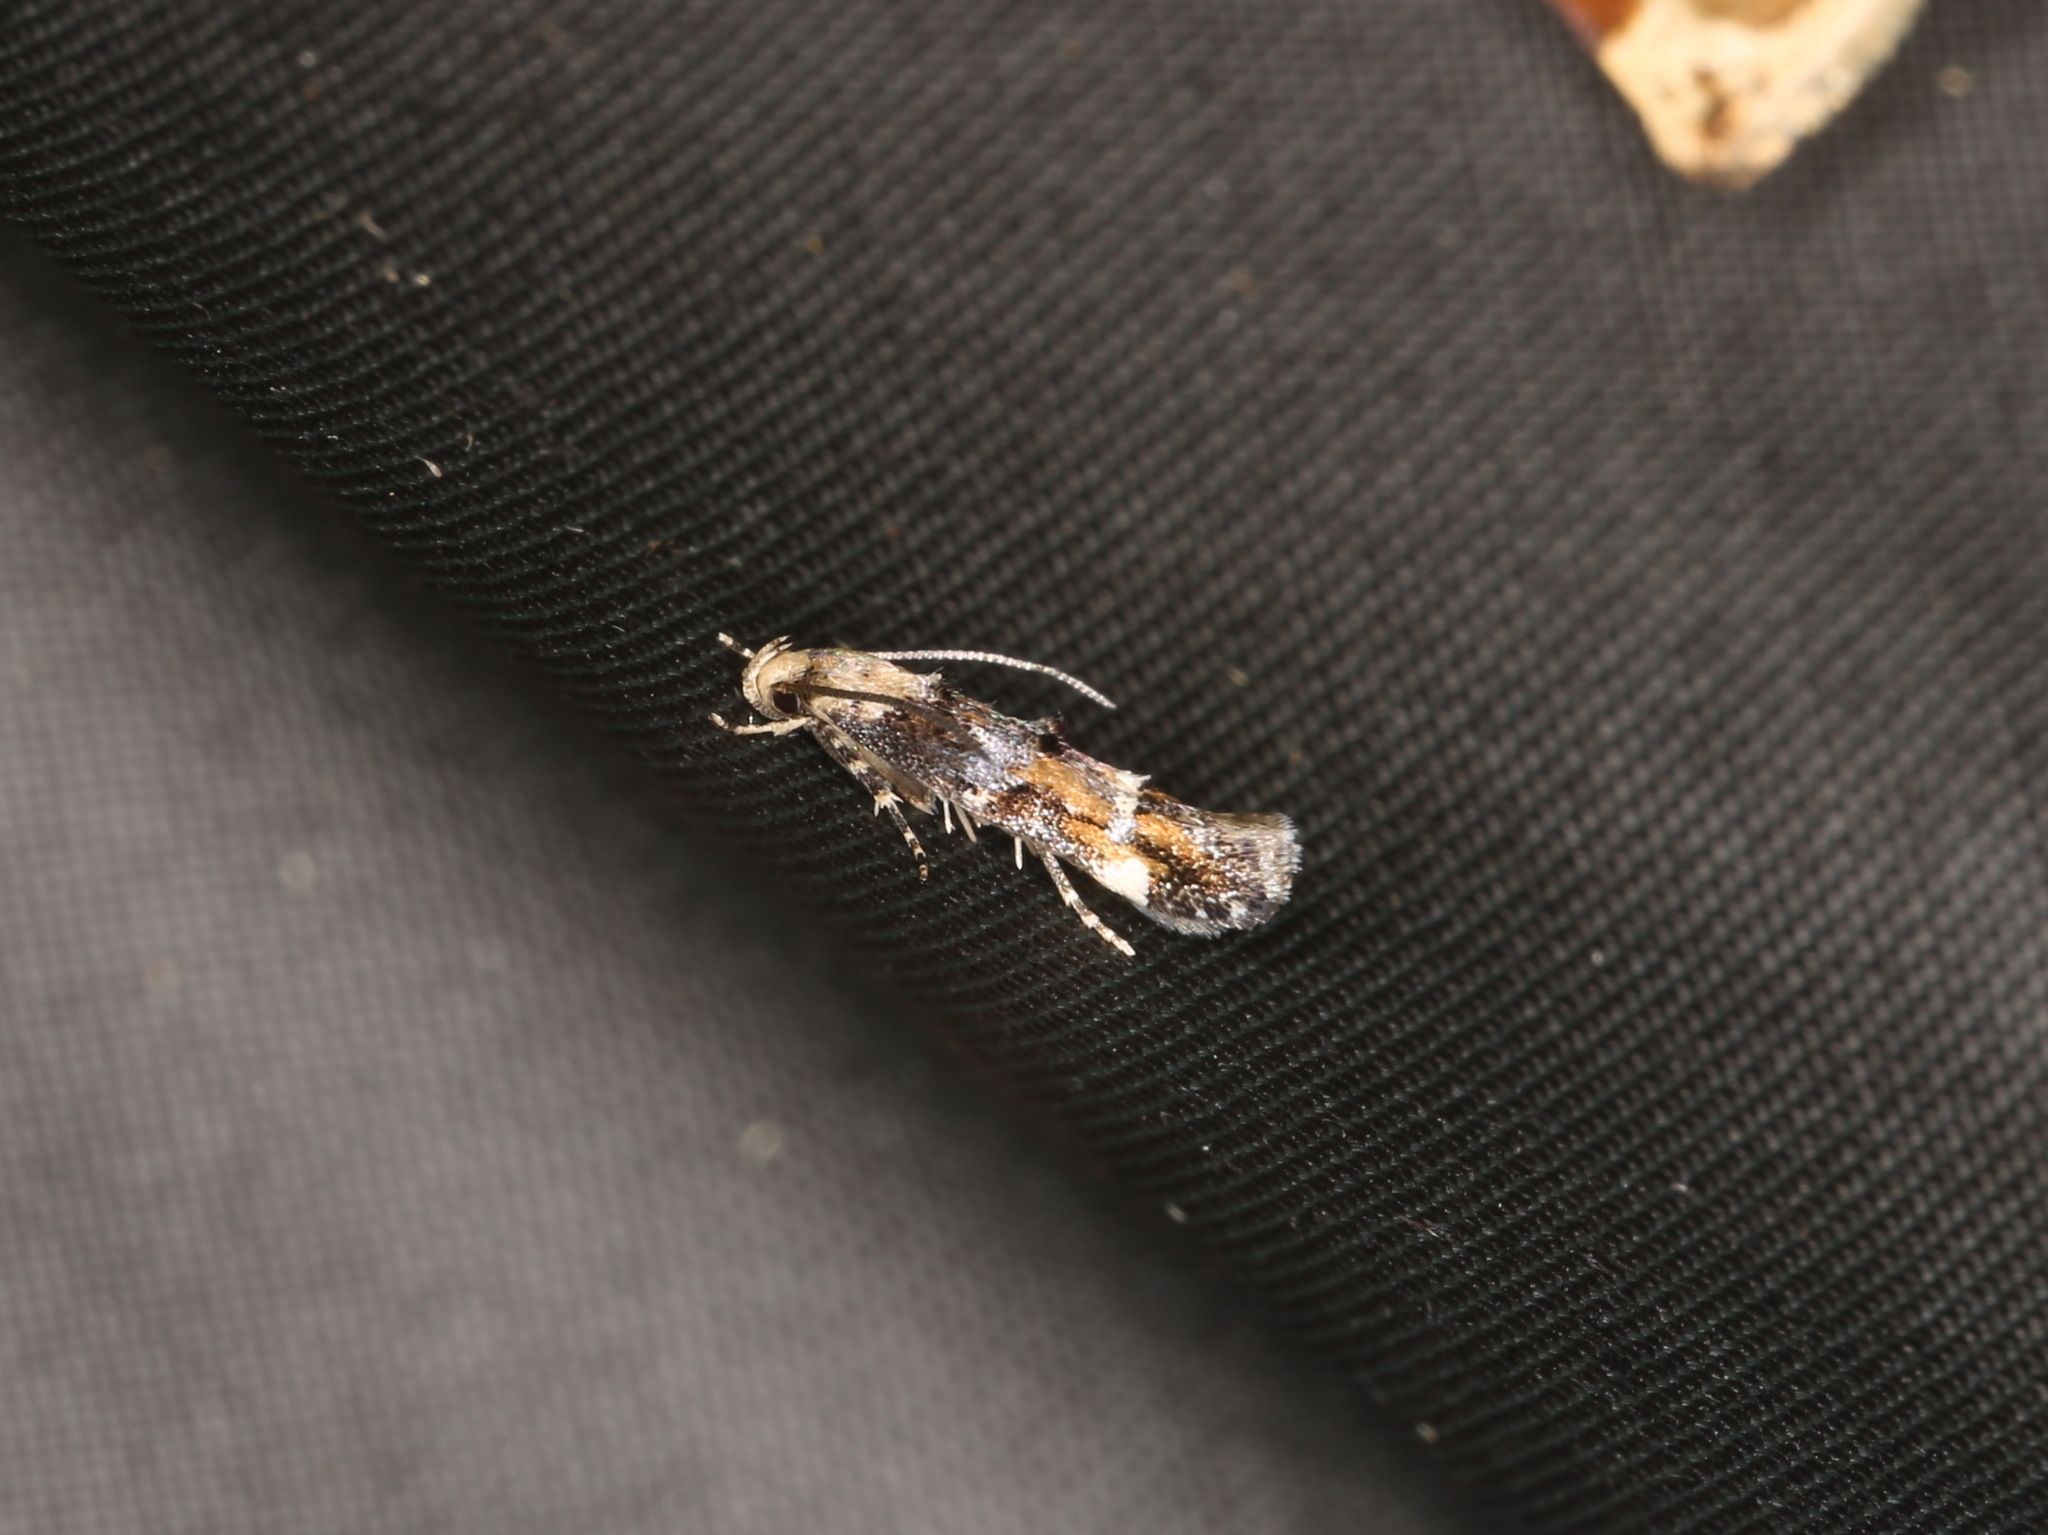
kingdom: Animalia
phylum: Arthropoda
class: Insecta
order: Lepidoptera
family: Momphidae
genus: Mompha
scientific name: Mompha lacteella
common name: Rust-blotch cosmet
